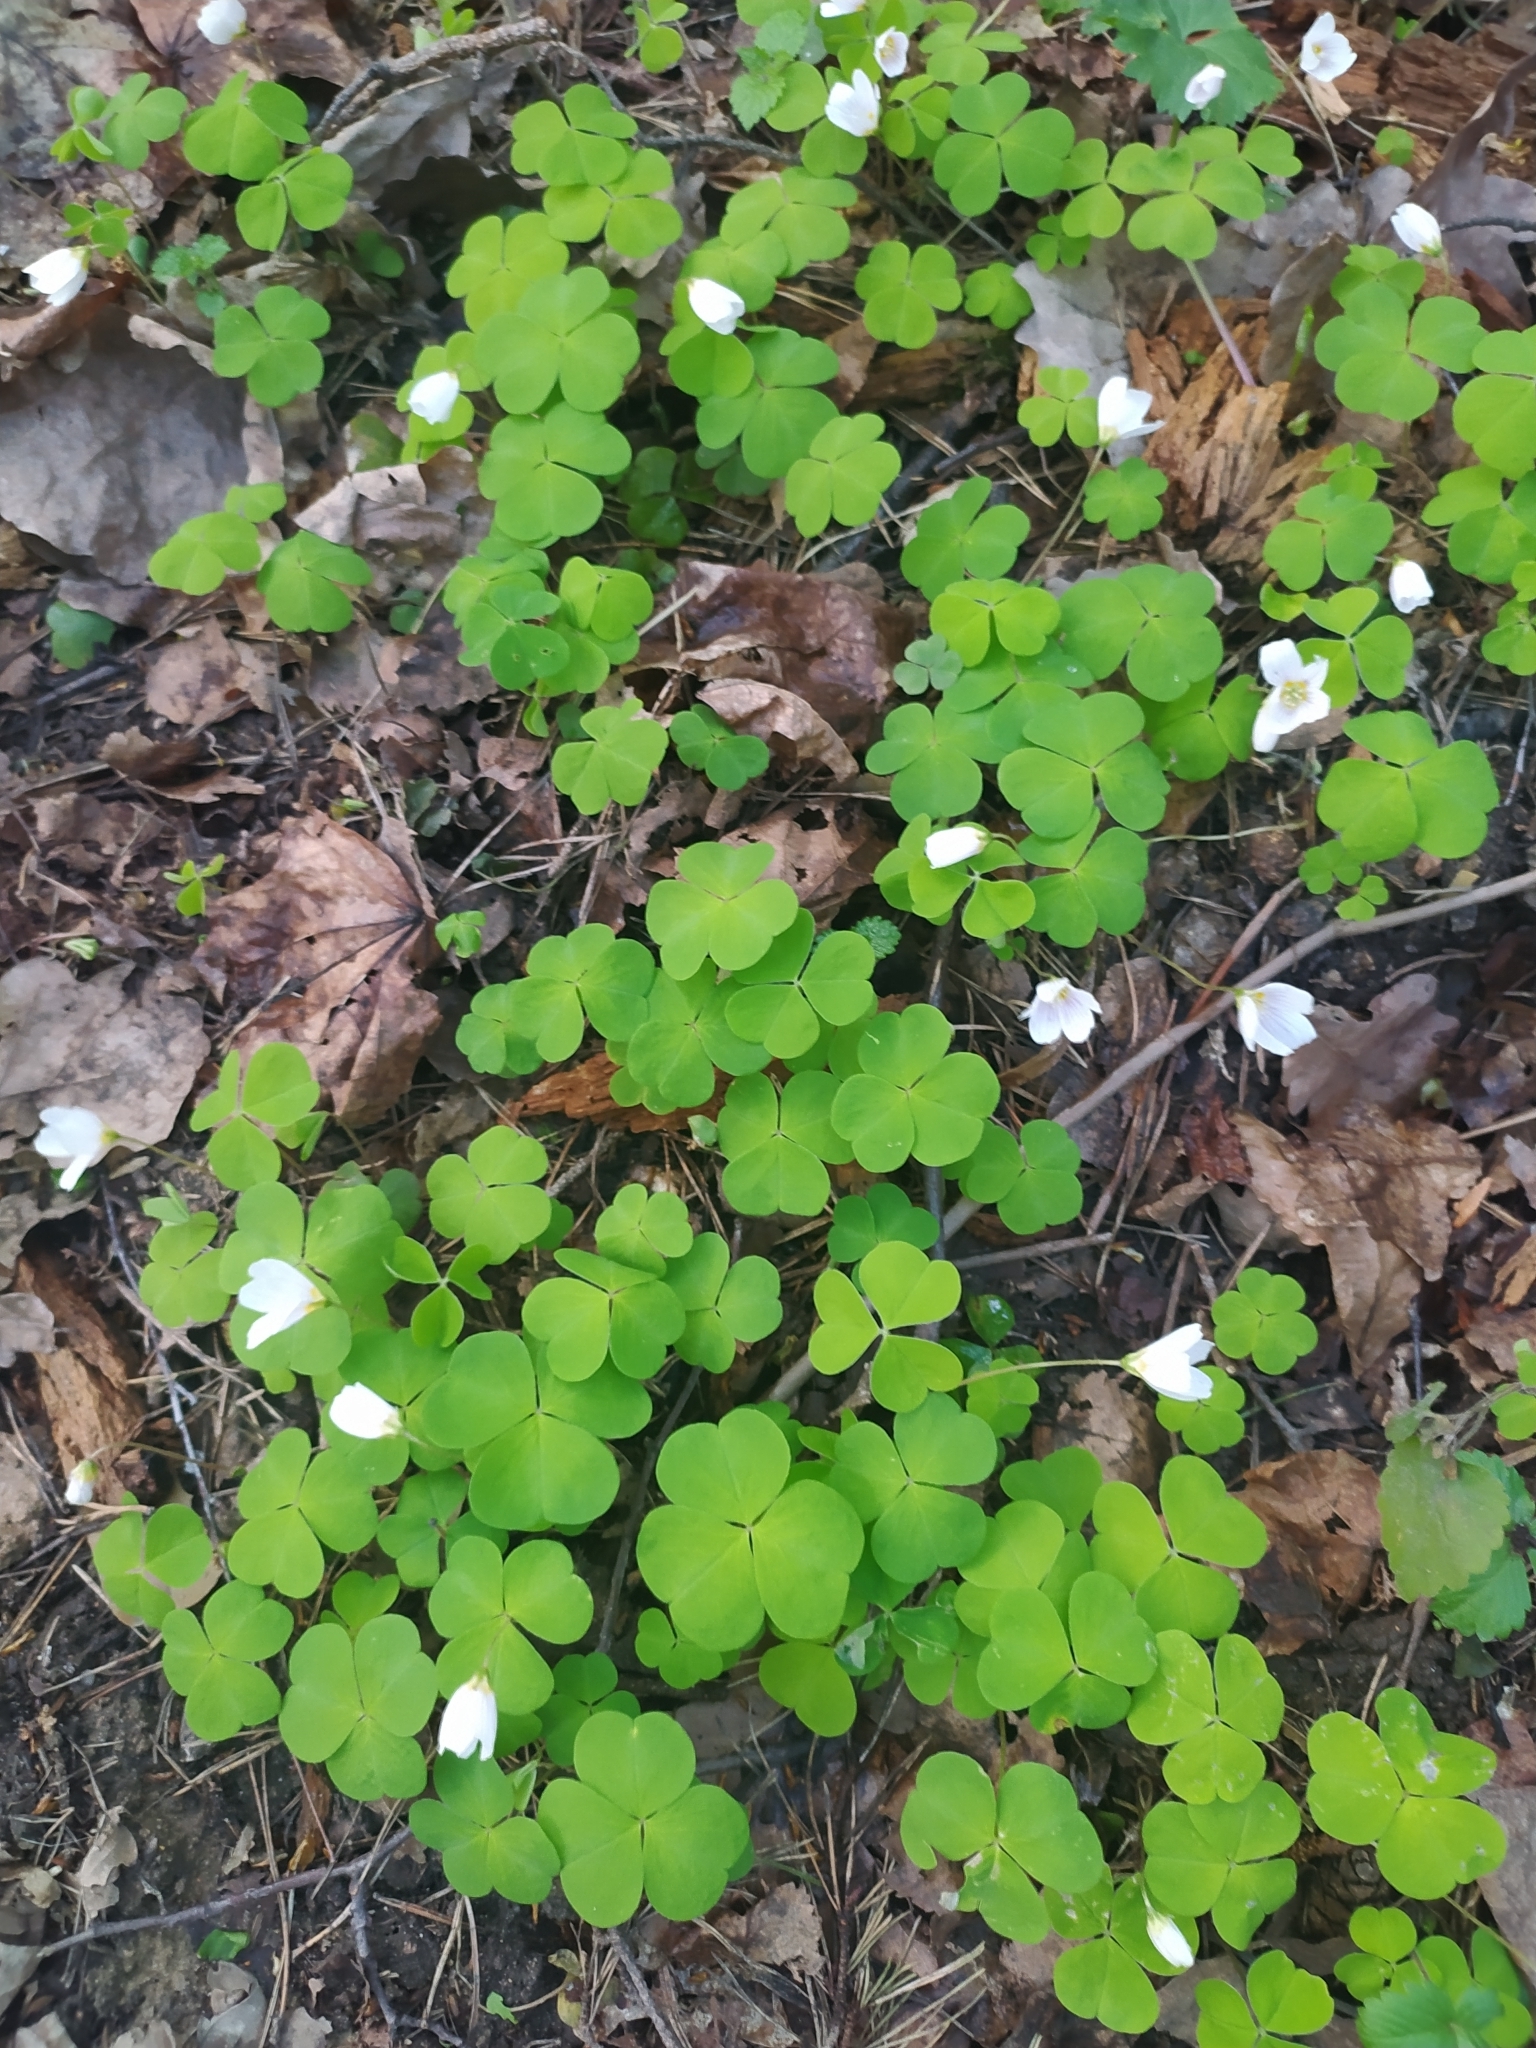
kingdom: Plantae
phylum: Tracheophyta
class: Magnoliopsida
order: Oxalidales
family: Oxalidaceae
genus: Oxalis
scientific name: Oxalis acetosella
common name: Wood-sorrel
